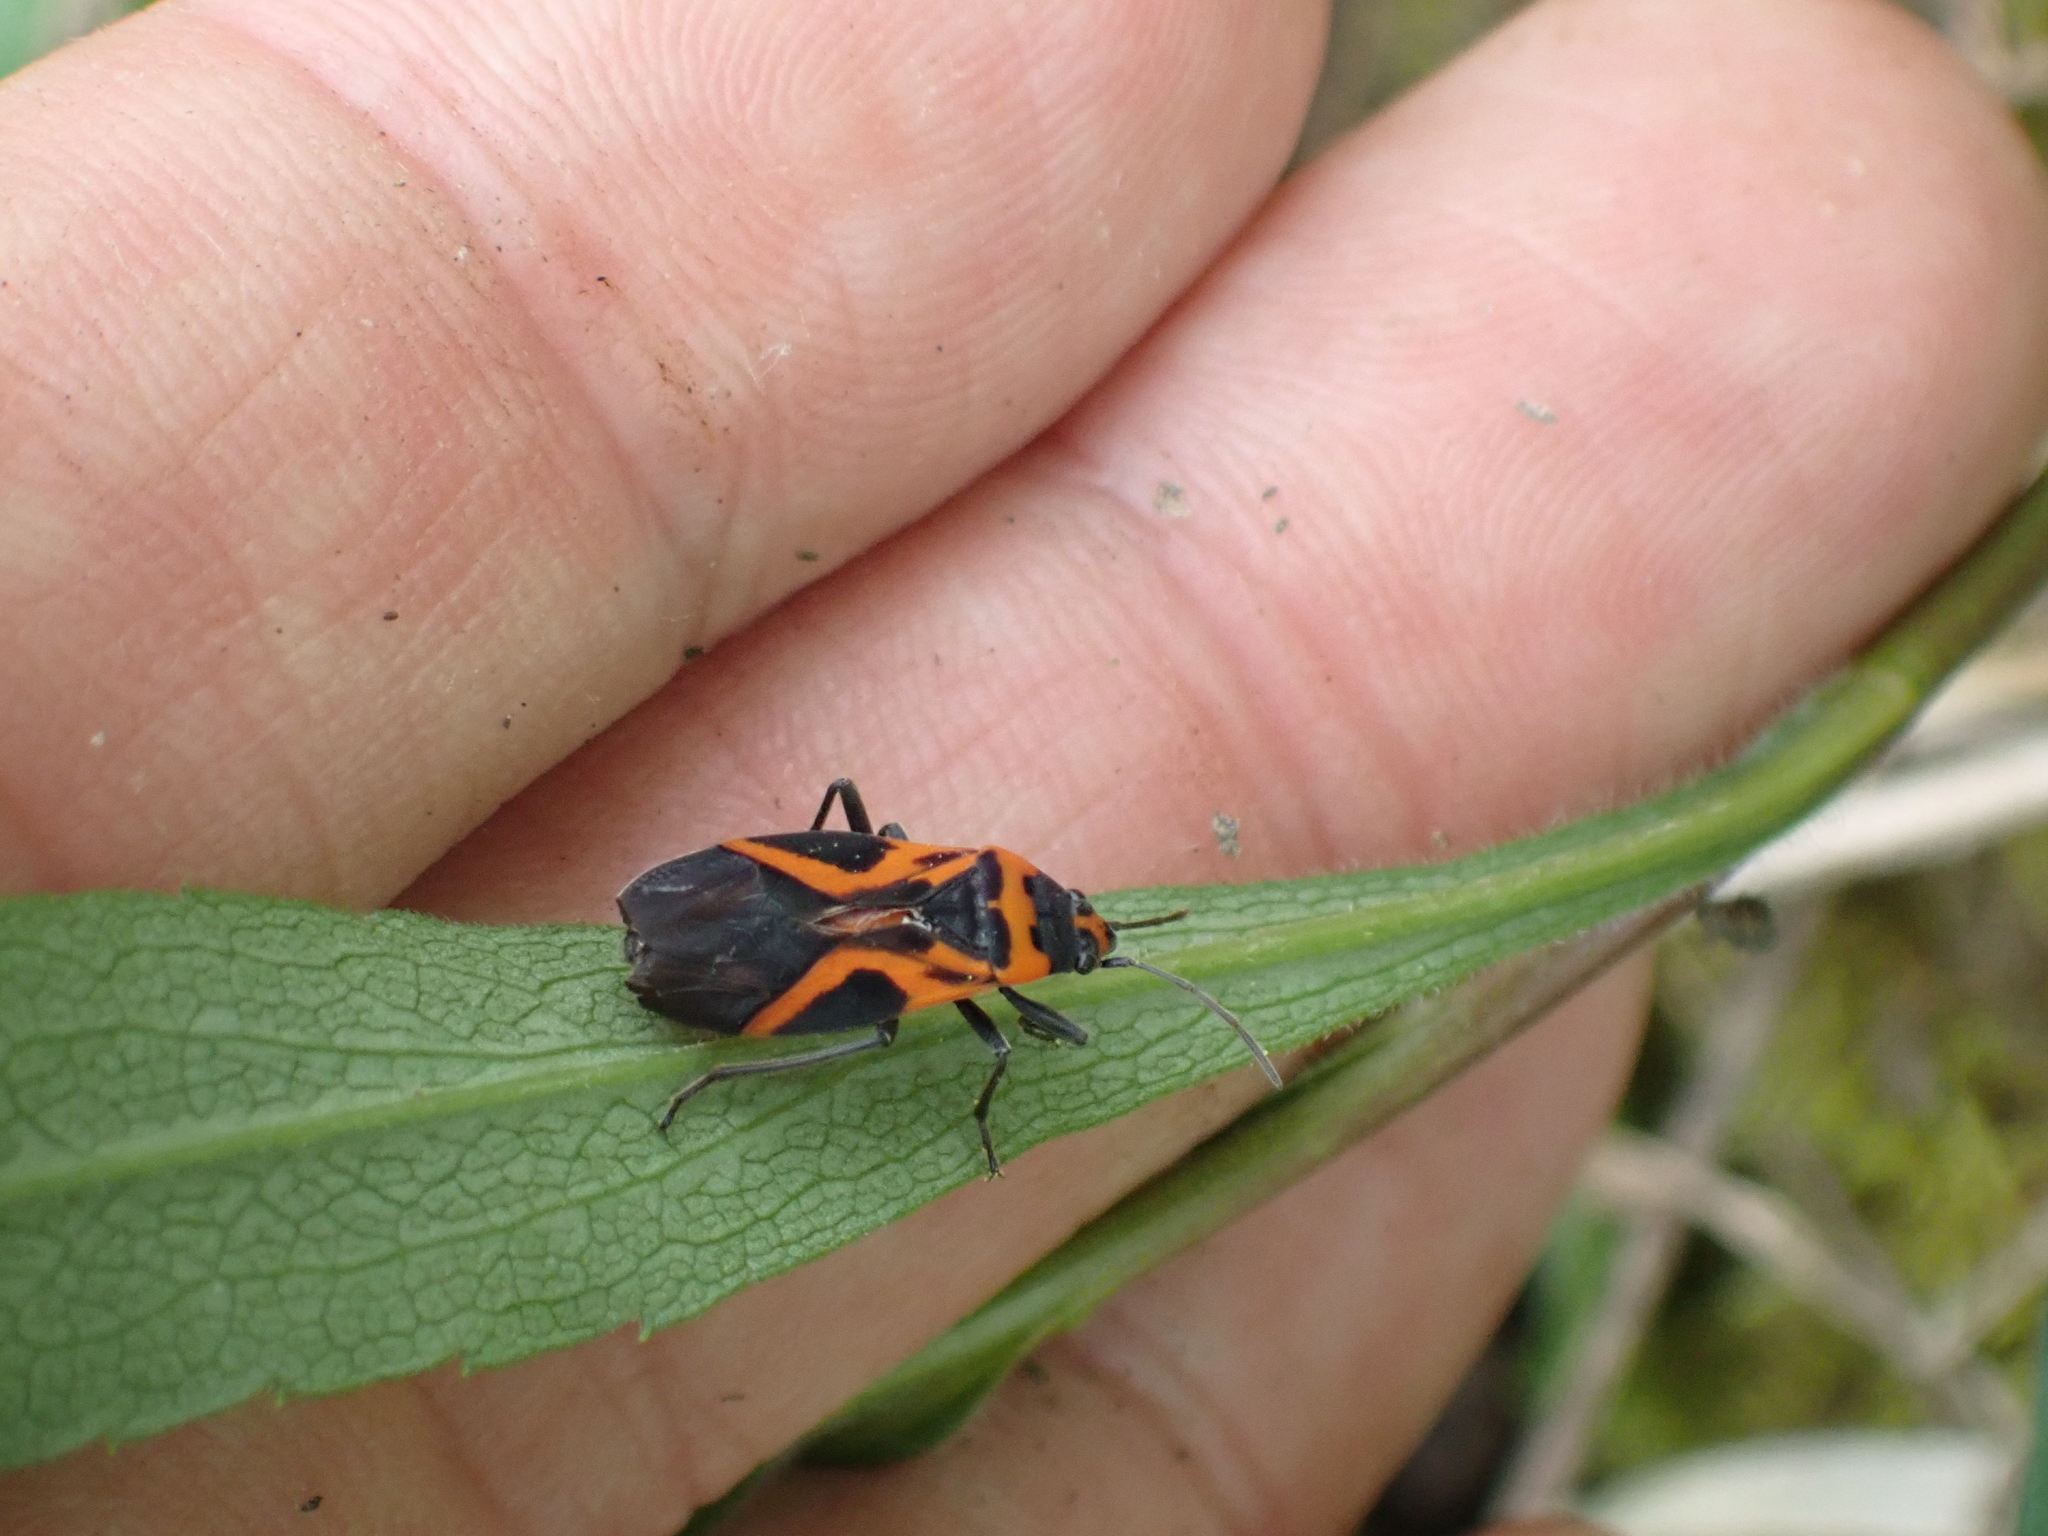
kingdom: Animalia
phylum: Arthropoda
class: Insecta
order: Hemiptera
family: Lygaeidae
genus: Lygaeus
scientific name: Lygaeus turcicus
